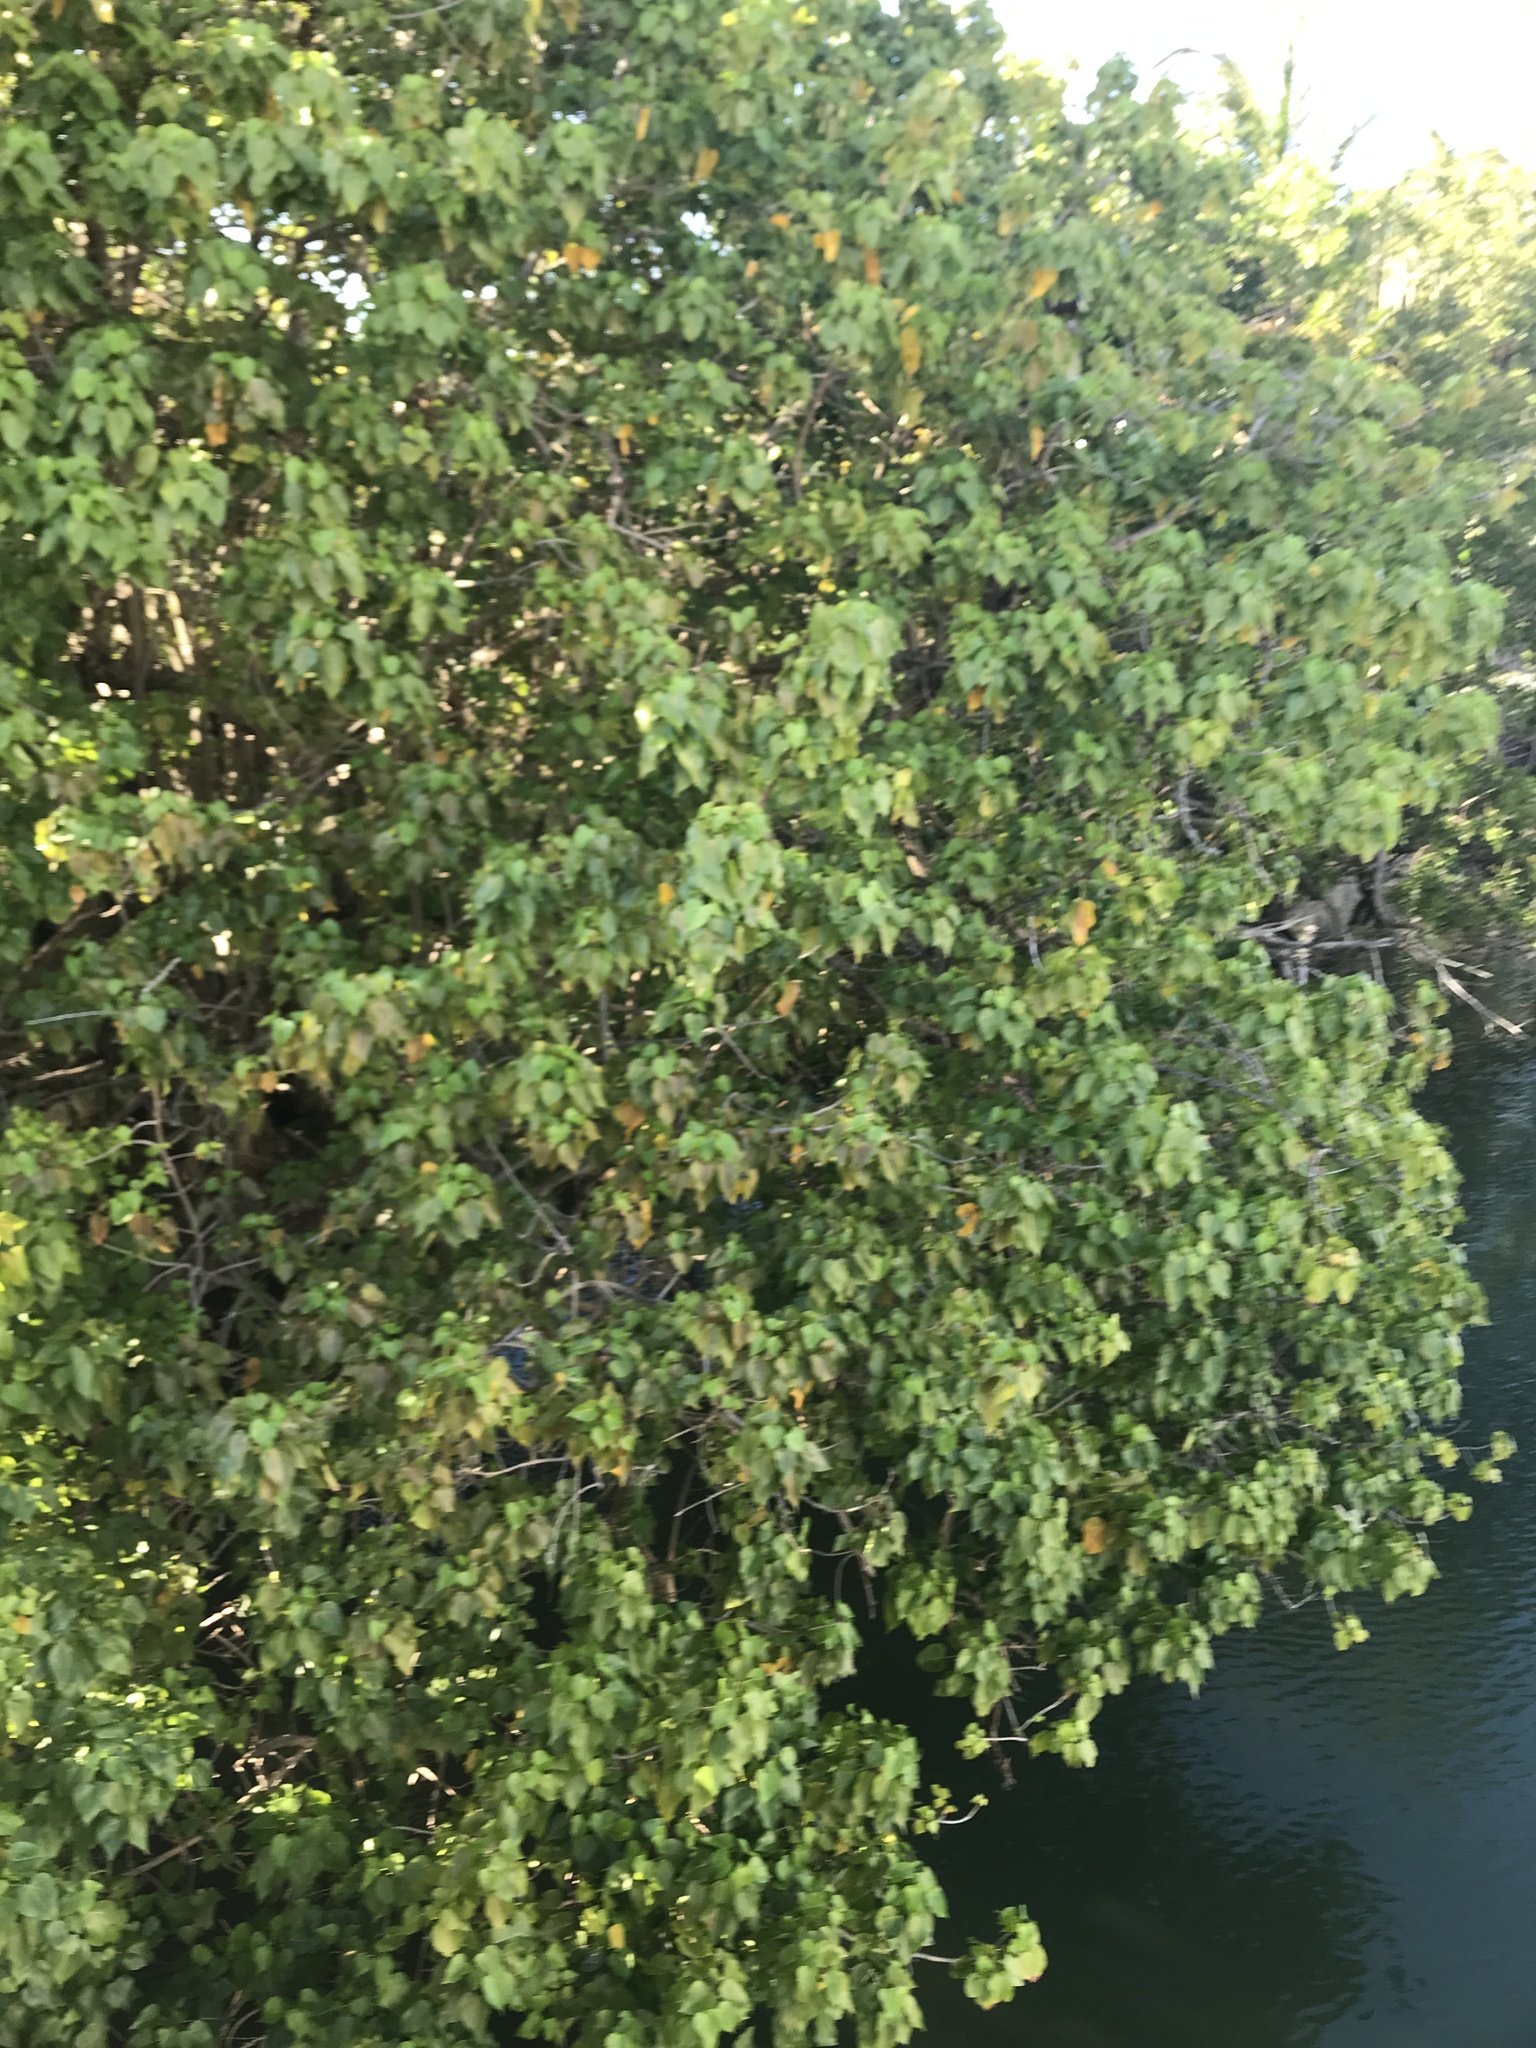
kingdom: Plantae
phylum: Tracheophyta
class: Magnoliopsida
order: Malvales
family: Malvaceae
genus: Thespesia
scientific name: Thespesia populnea
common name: Seaside mahoe
